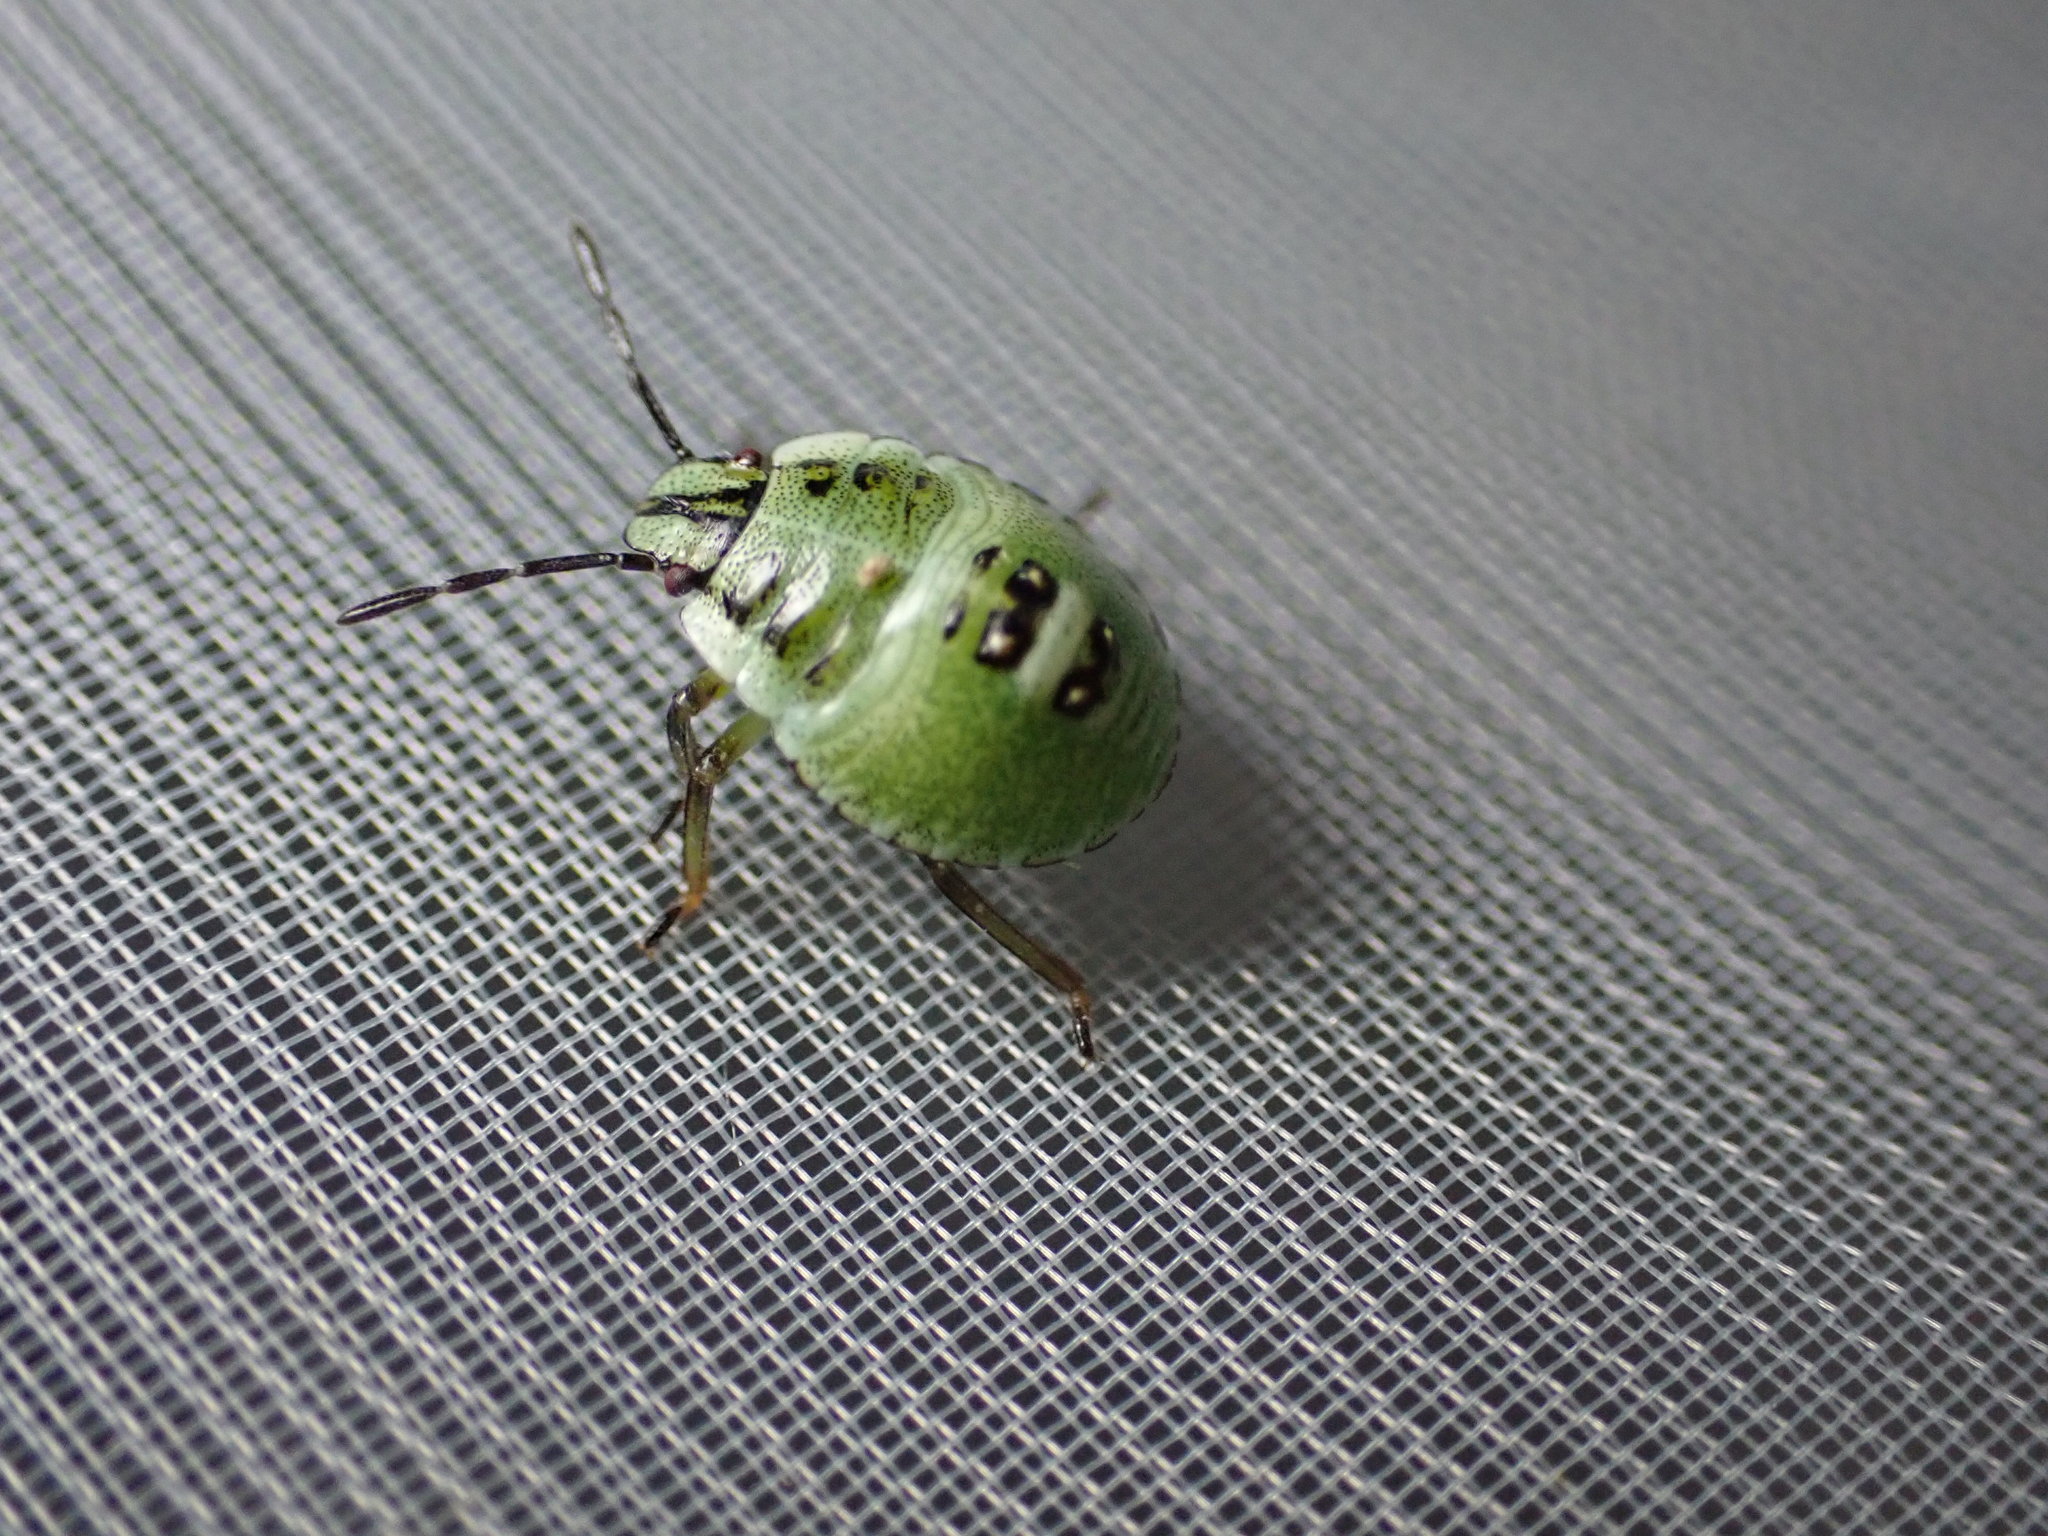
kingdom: Animalia
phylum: Arthropoda
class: Insecta
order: Hemiptera
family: Pentatomidae
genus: Palomena
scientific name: Palomena prasina
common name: Green shieldbug
